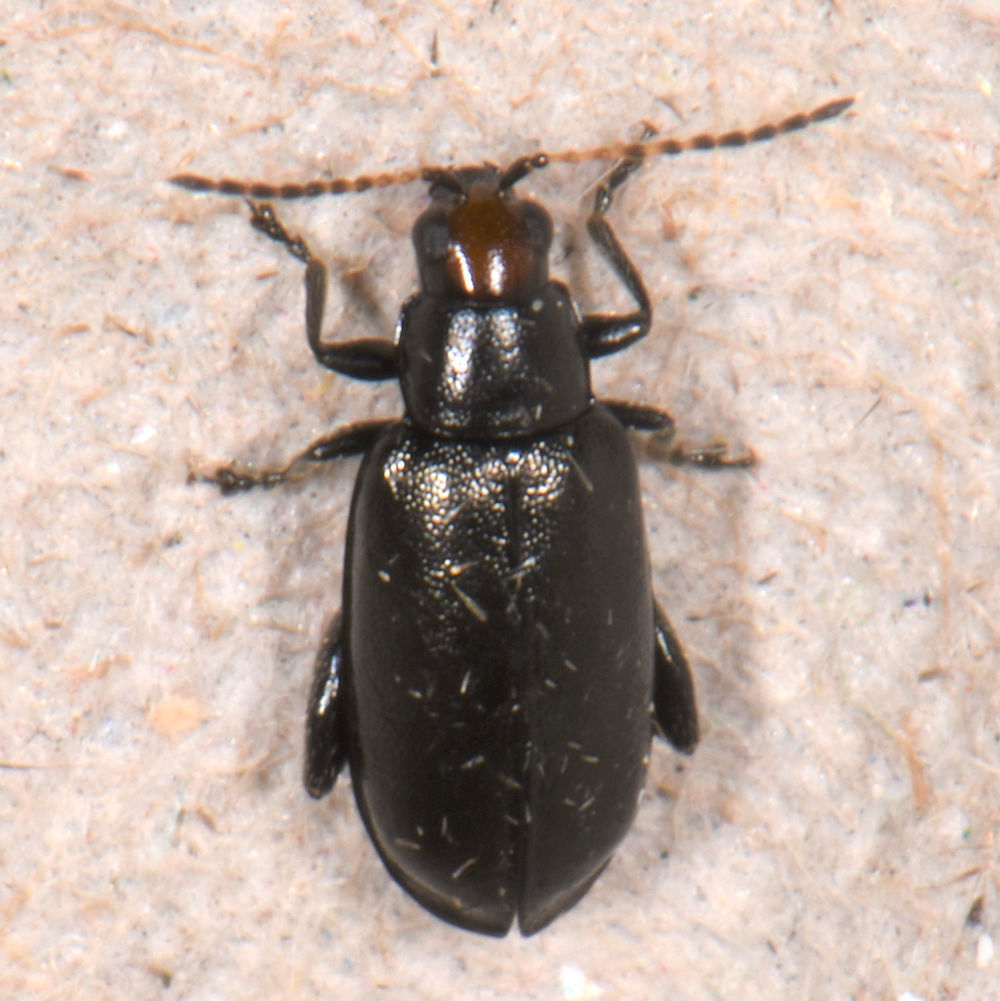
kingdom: Animalia
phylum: Arthropoda
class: Insecta
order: Coleoptera
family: Chrysomelidae
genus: Systena
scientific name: Systena frontalis
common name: Red-headed flea beetle
